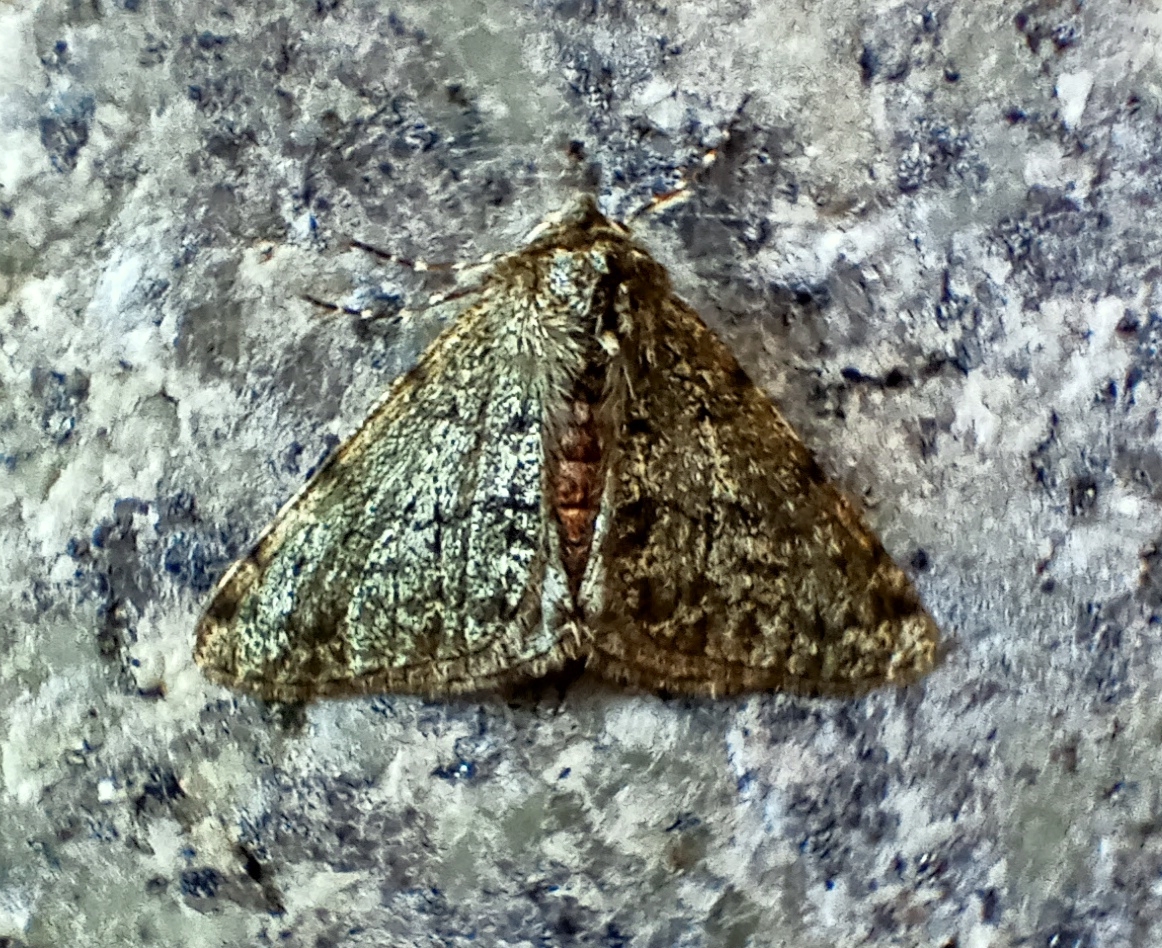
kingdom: Animalia
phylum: Arthropoda
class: Insecta
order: Lepidoptera
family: Geometridae
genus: Phigalia
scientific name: Phigalia pilosaria
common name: Pale brindled beauty
